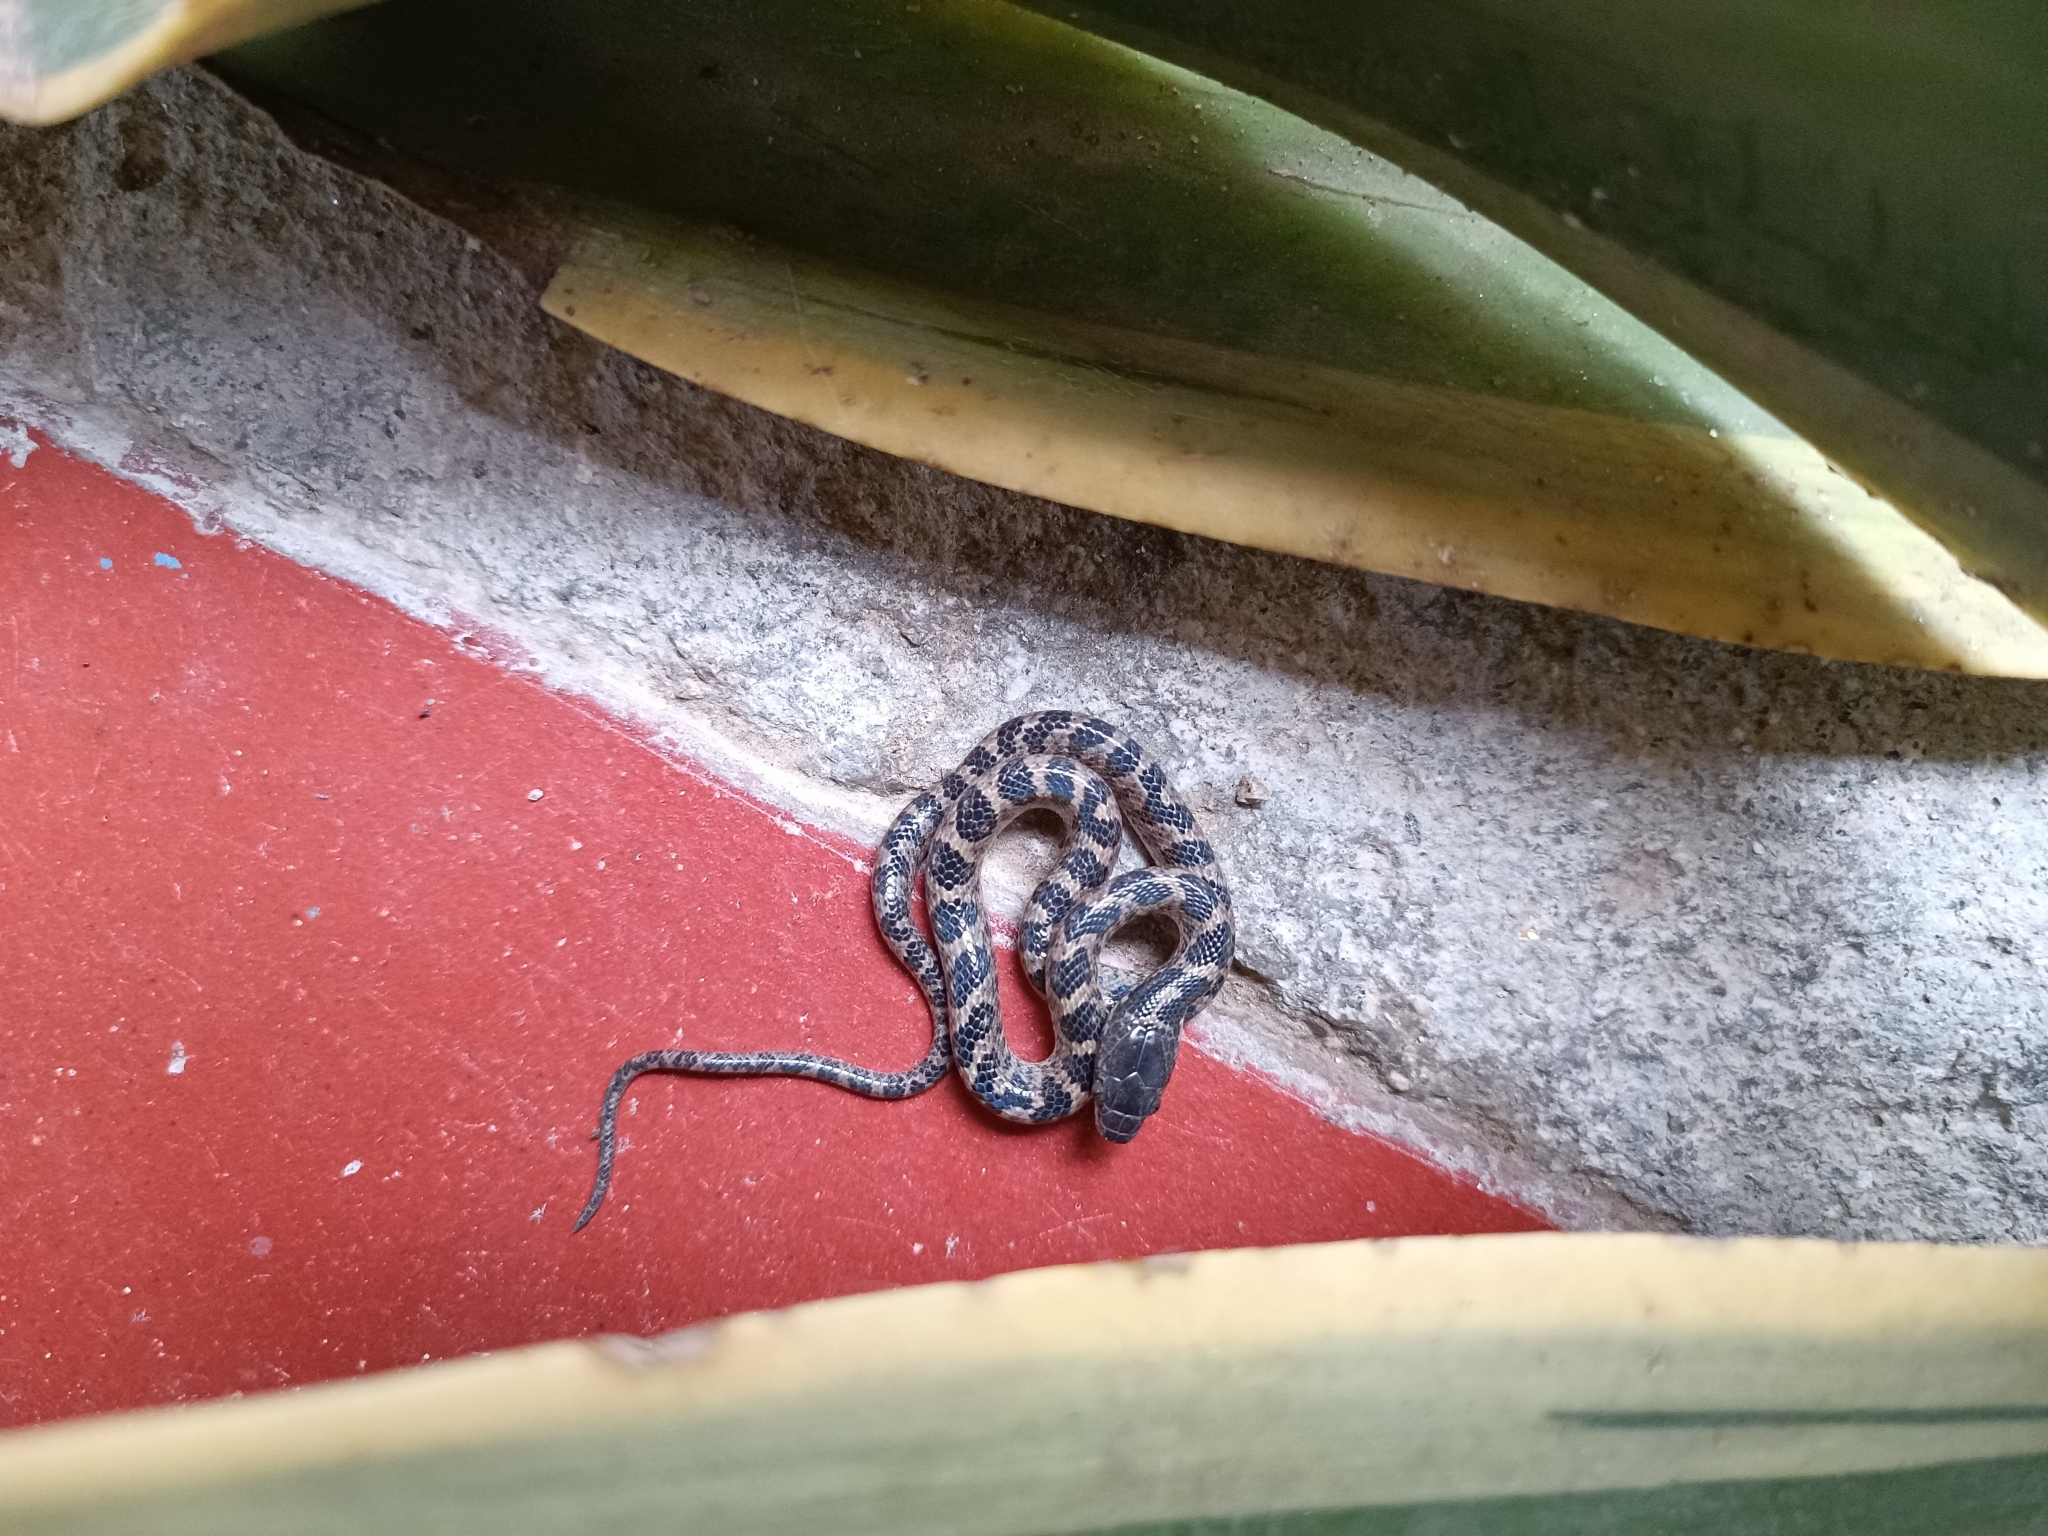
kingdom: Animalia
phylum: Chordata
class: Squamata
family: Colubridae
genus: Leptodeira
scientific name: Leptodeira ashmeadii
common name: Banded cat-eyed snake
